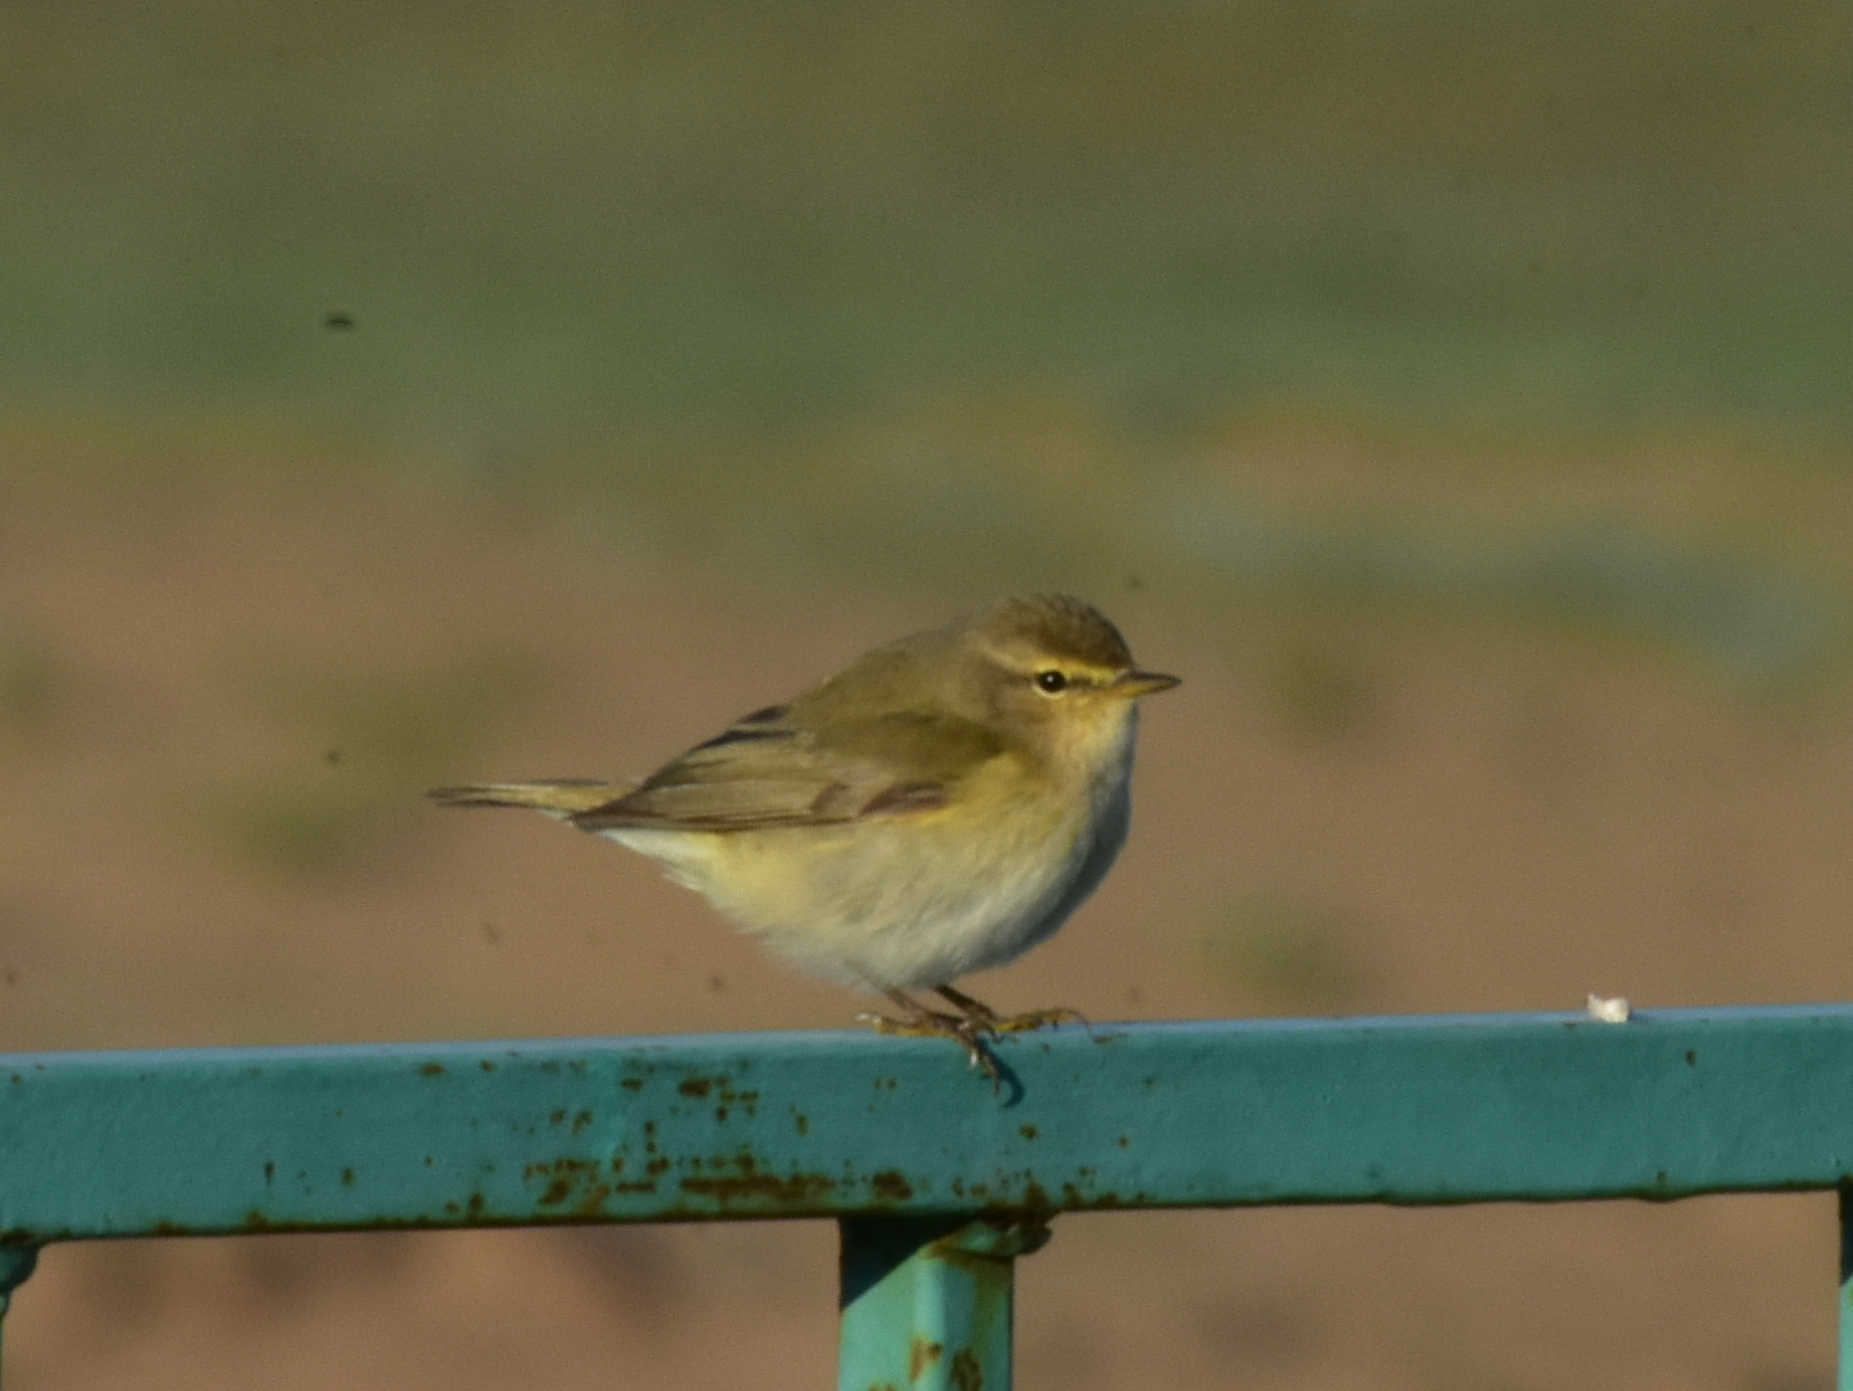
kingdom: Animalia
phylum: Chordata
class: Aves
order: Passeriformes
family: Phylloscopidae
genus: Phylloscopus
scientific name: Phylloscopus collybita
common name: Common chiffchaff
